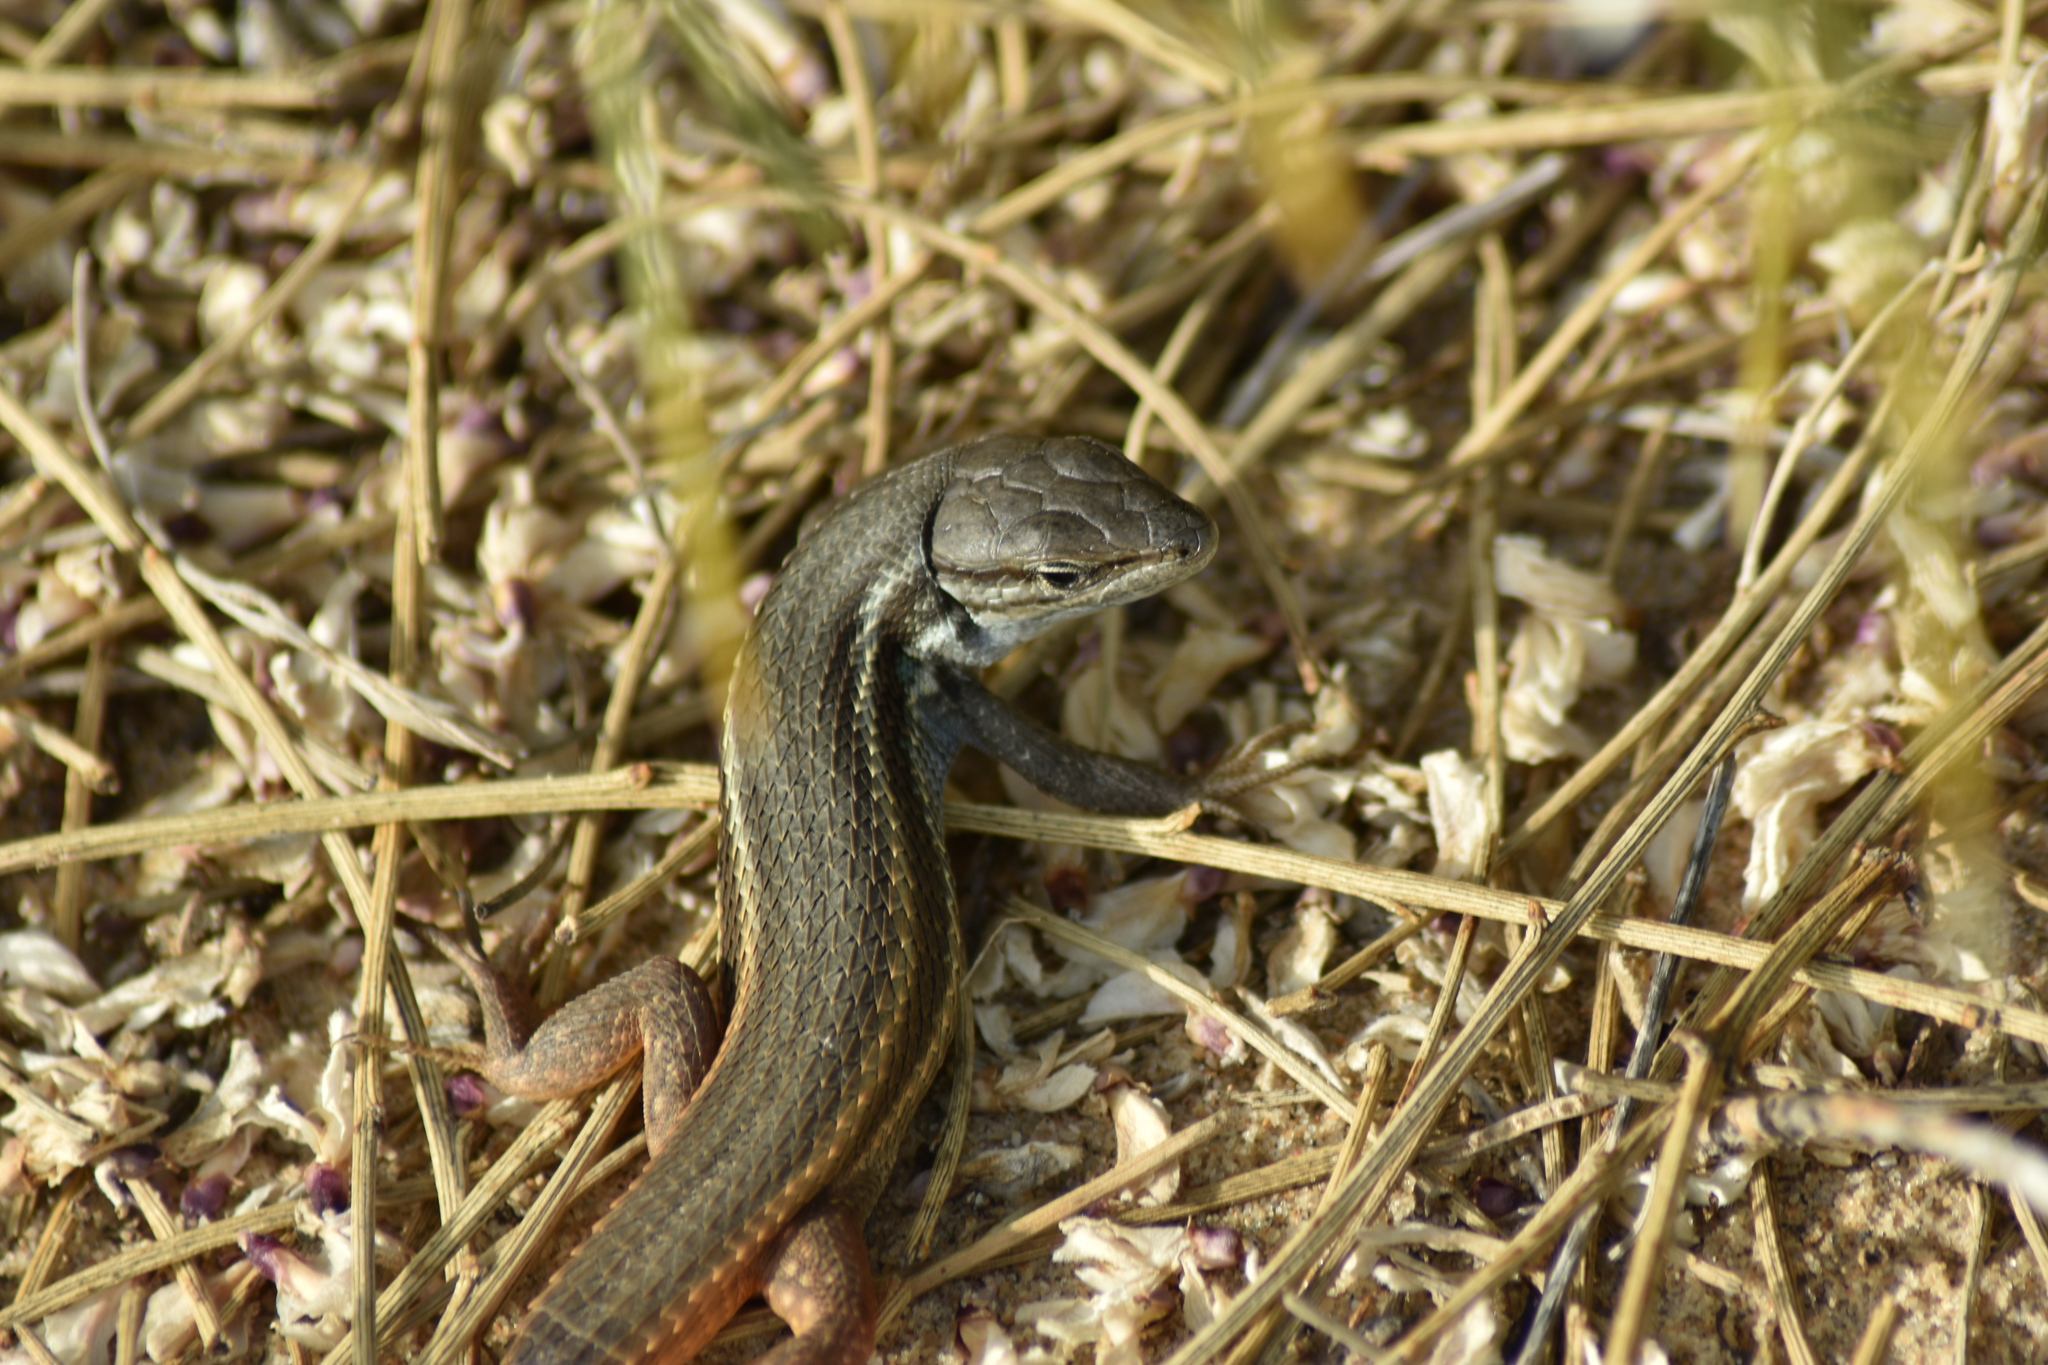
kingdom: Animalia
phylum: Chordata
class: Squamata
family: Lacertidae
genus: Psammodromus
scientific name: Psammodromus algirus
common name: Algerian psammodromus
